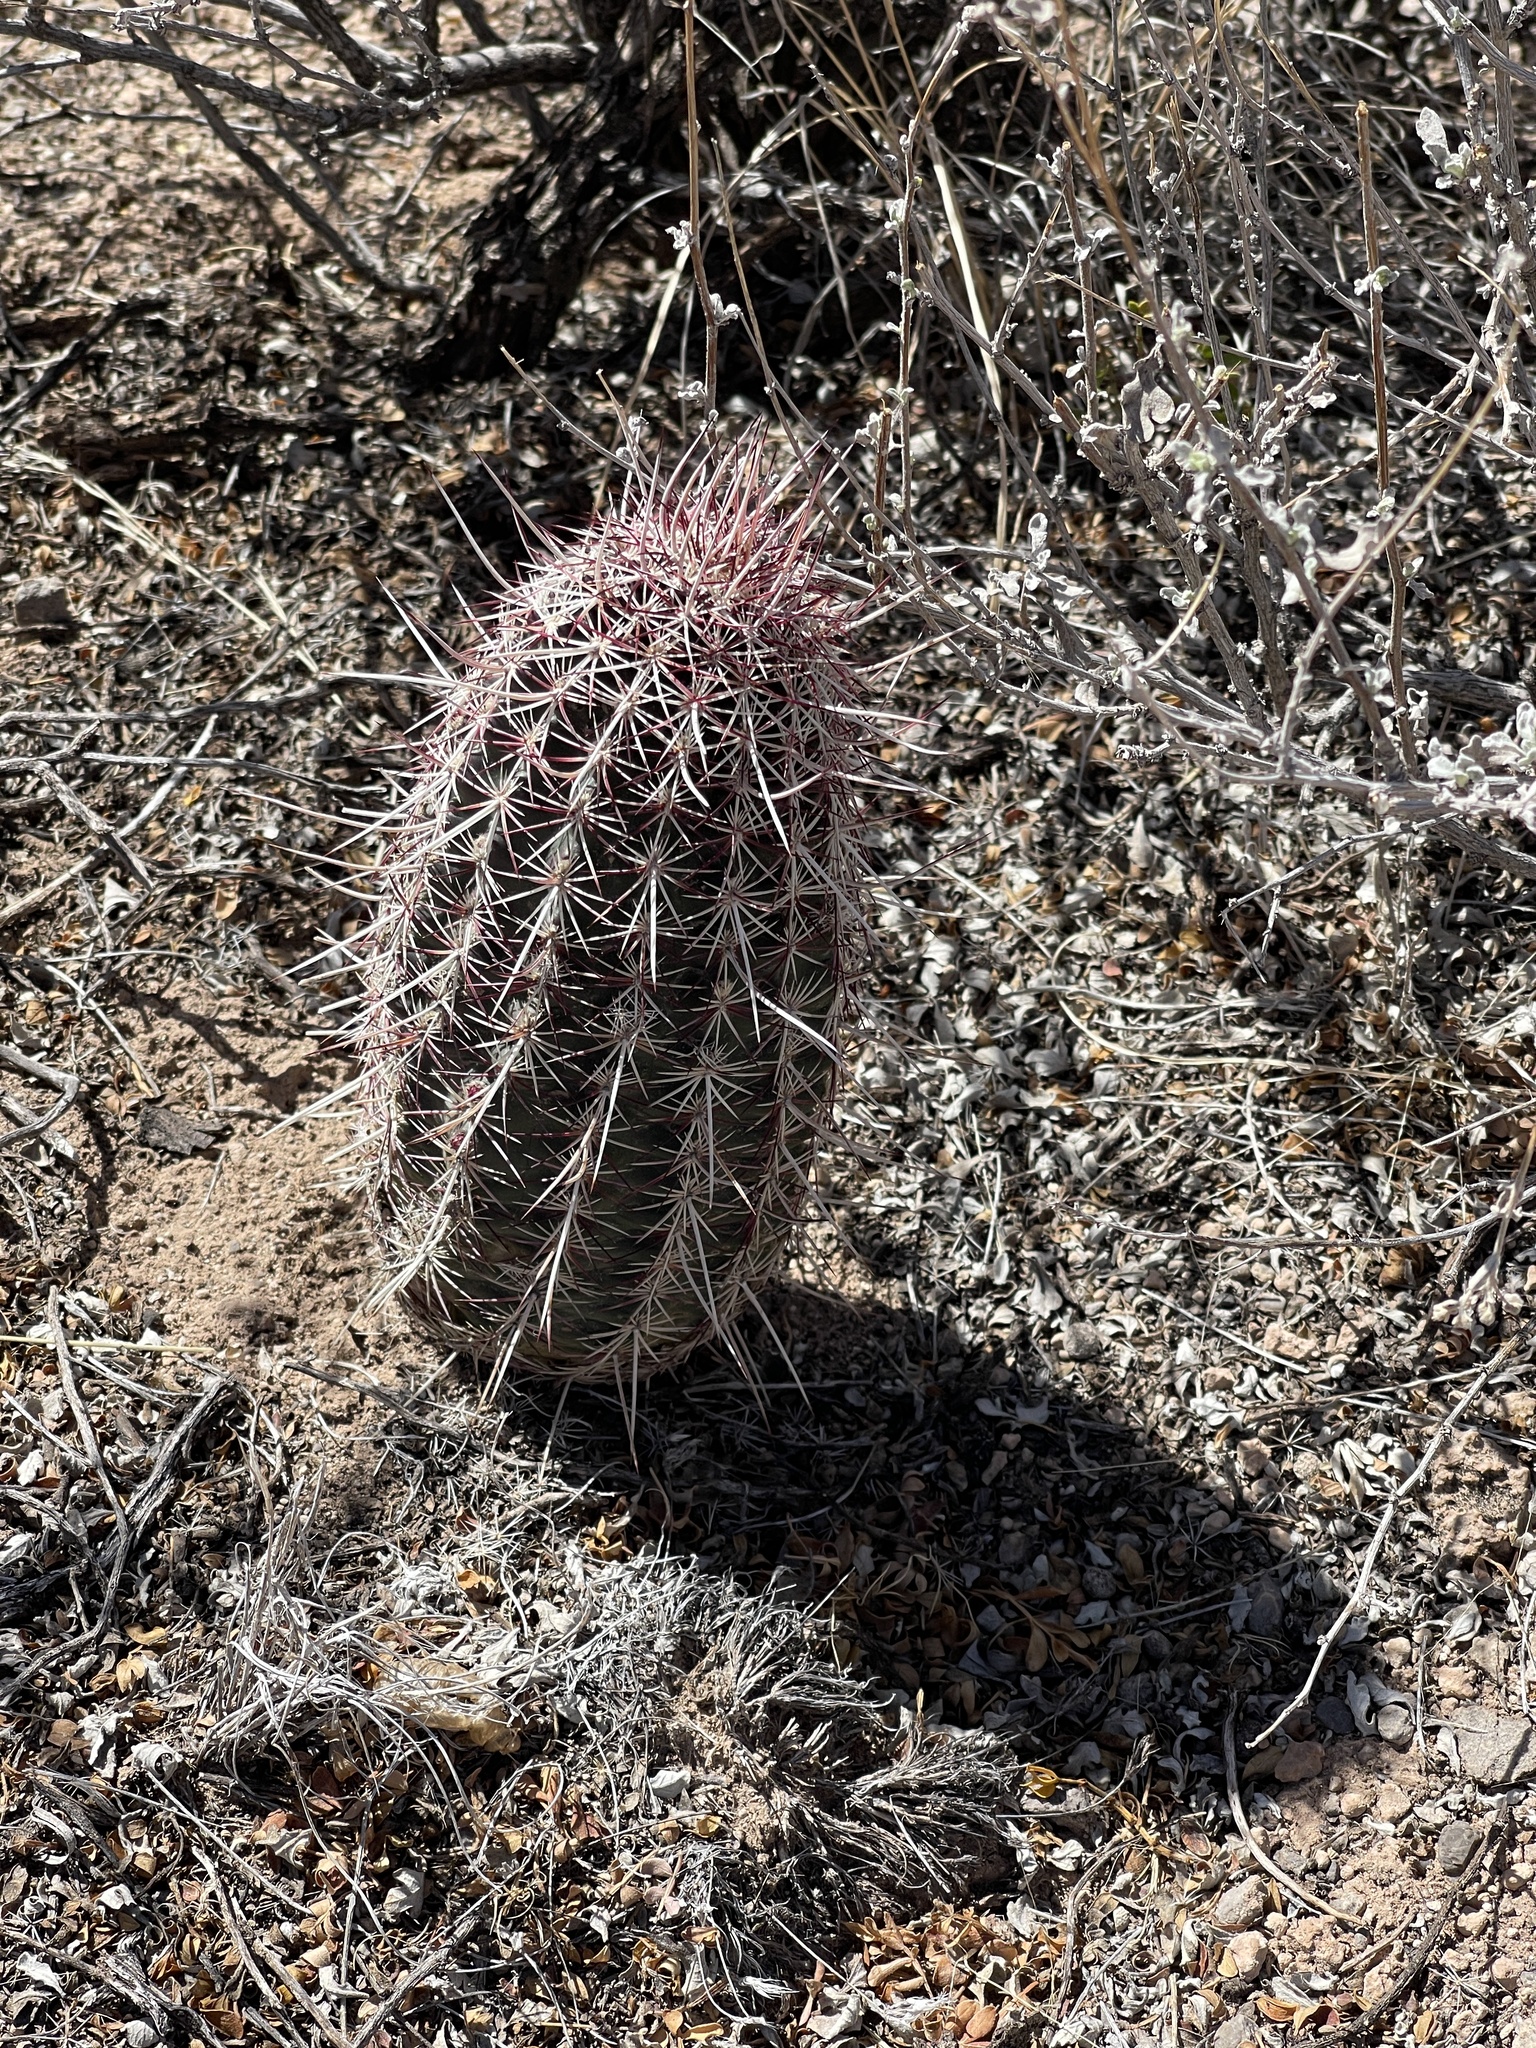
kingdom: Plantae
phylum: Tracheophyta
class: Magnoliopsida
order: Caryophyllales
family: Cactaceae
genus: Echinocereus
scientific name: Echinocereus viridiflorus
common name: Nylon hedgehog cactus
